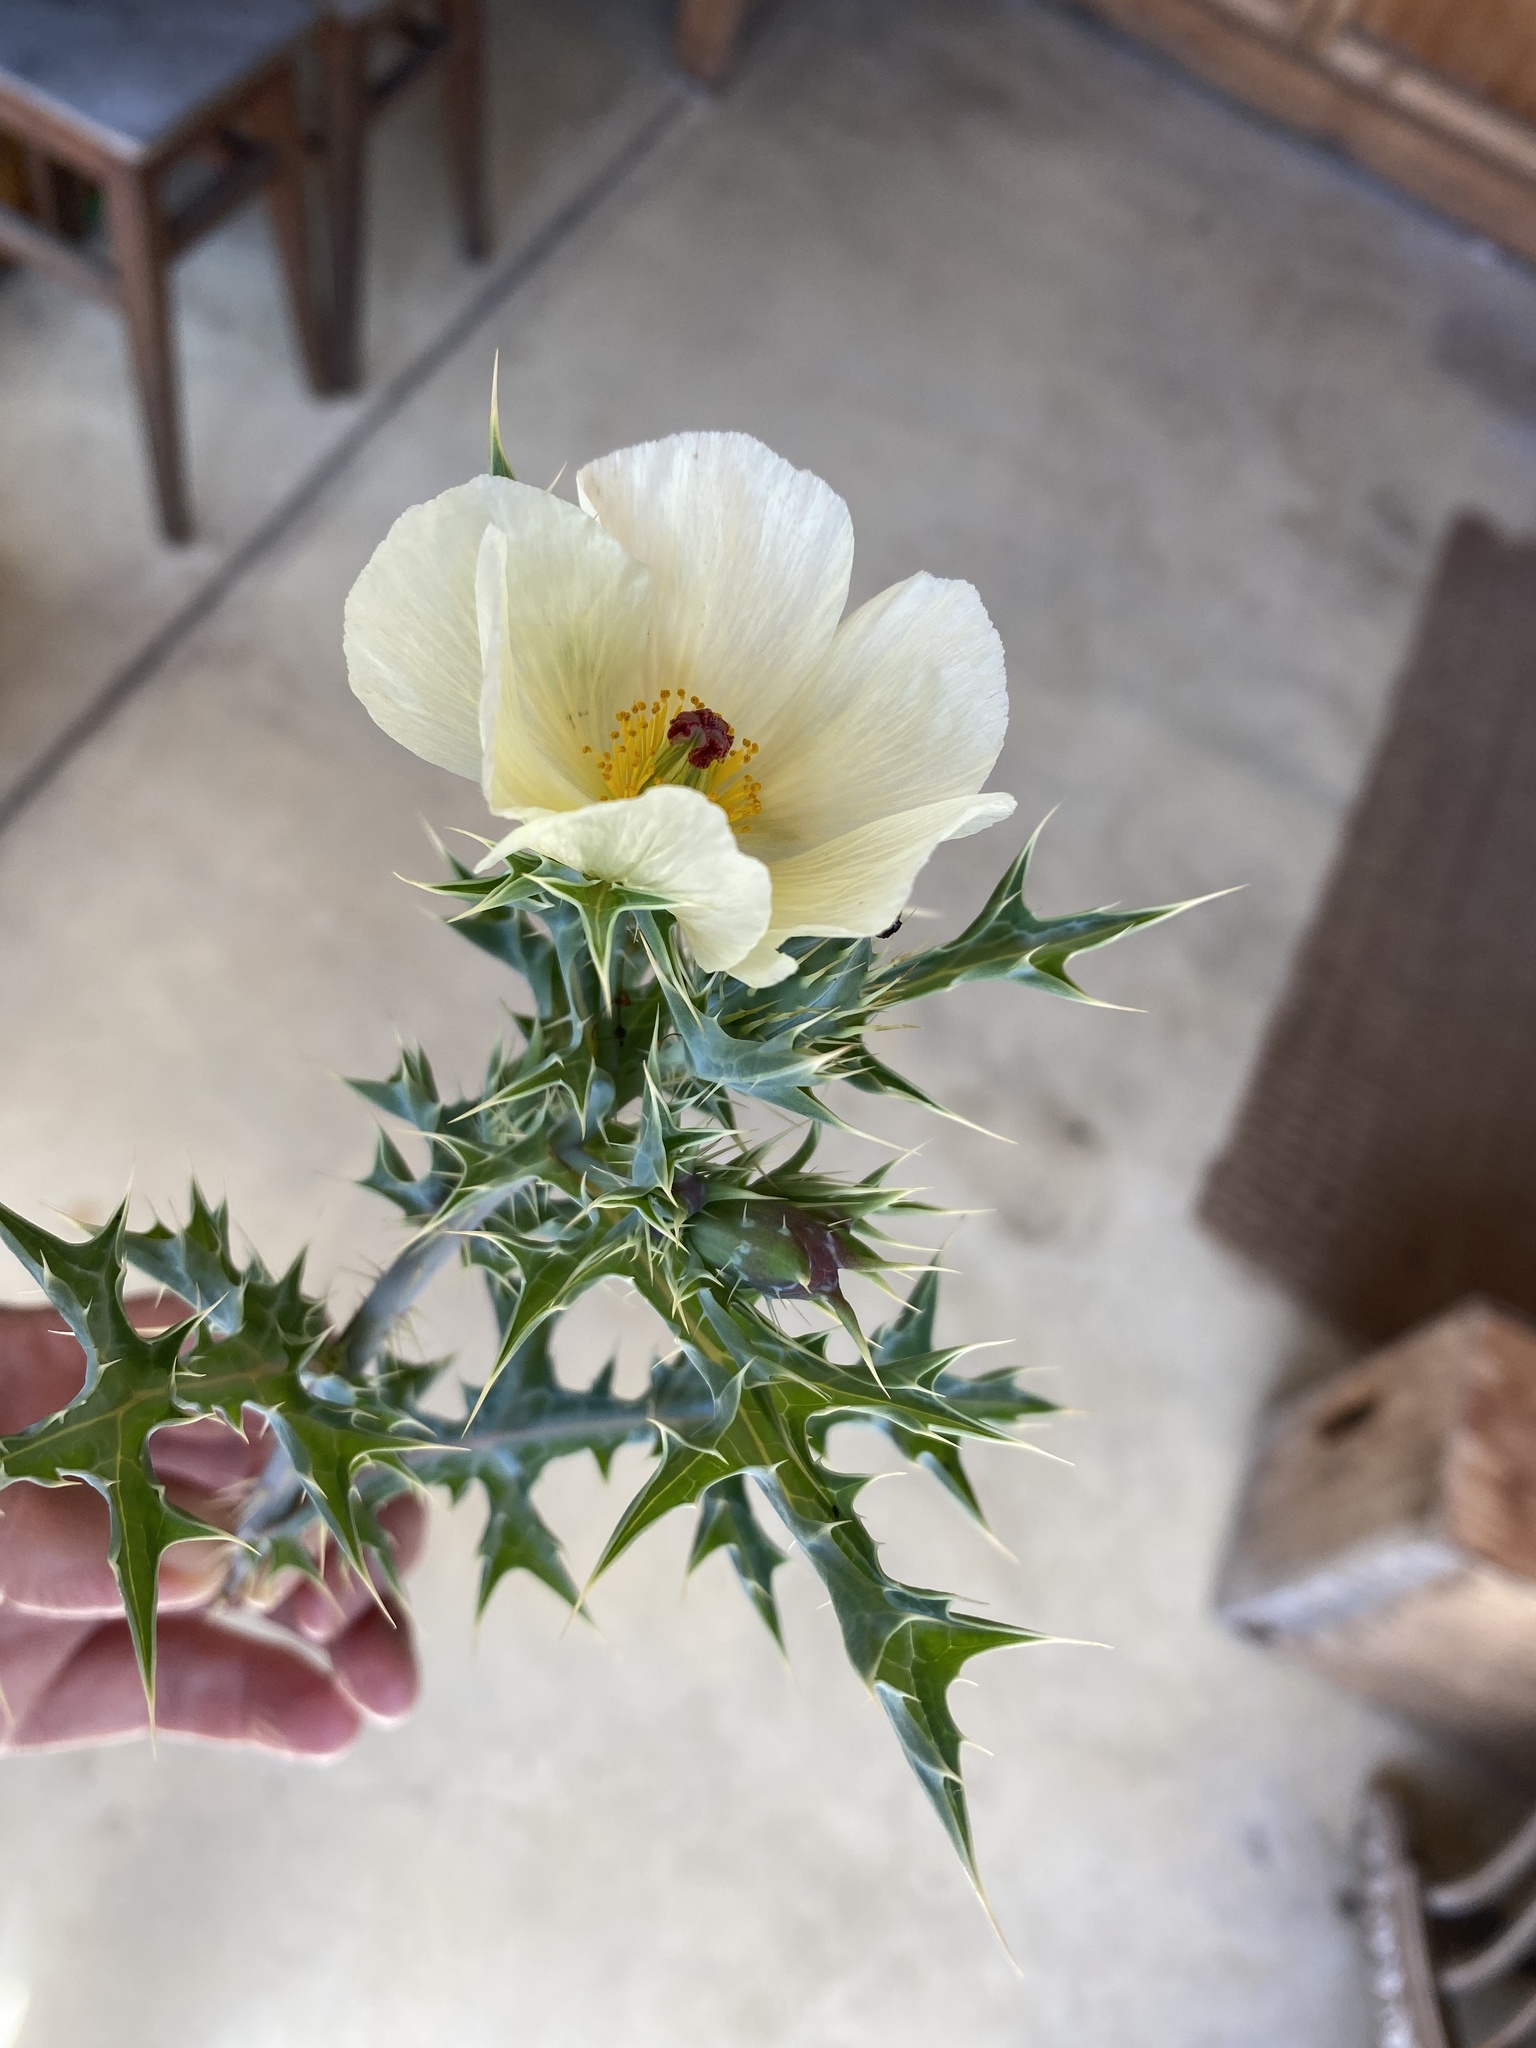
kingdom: Plantae
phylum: Tracheophyta
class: Magnoliopsida
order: Ranunculales
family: Papaveraceae
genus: Argemone
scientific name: Argemone ochroleuca
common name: White-flower mexican-poppy
